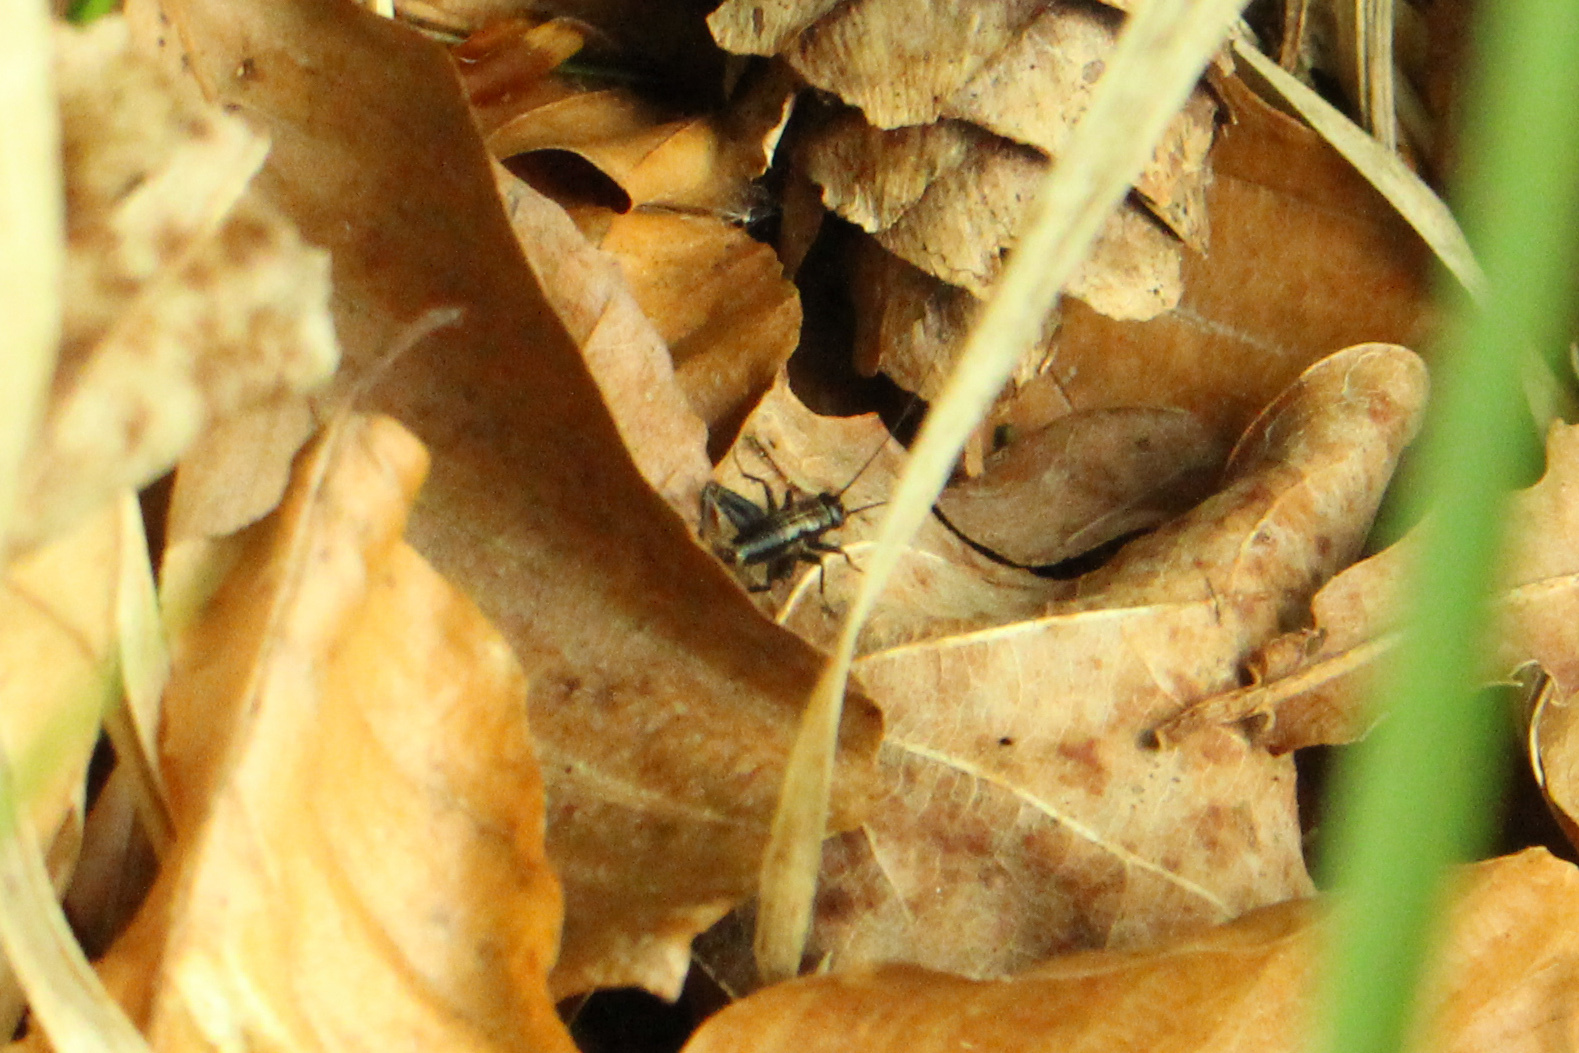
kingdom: Animalia
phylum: Arthropoda
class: Insecta
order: Orthoptera
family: Trigonidiidae
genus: Nemobius
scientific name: Nemobius sylvestris
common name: Wood-cricket
